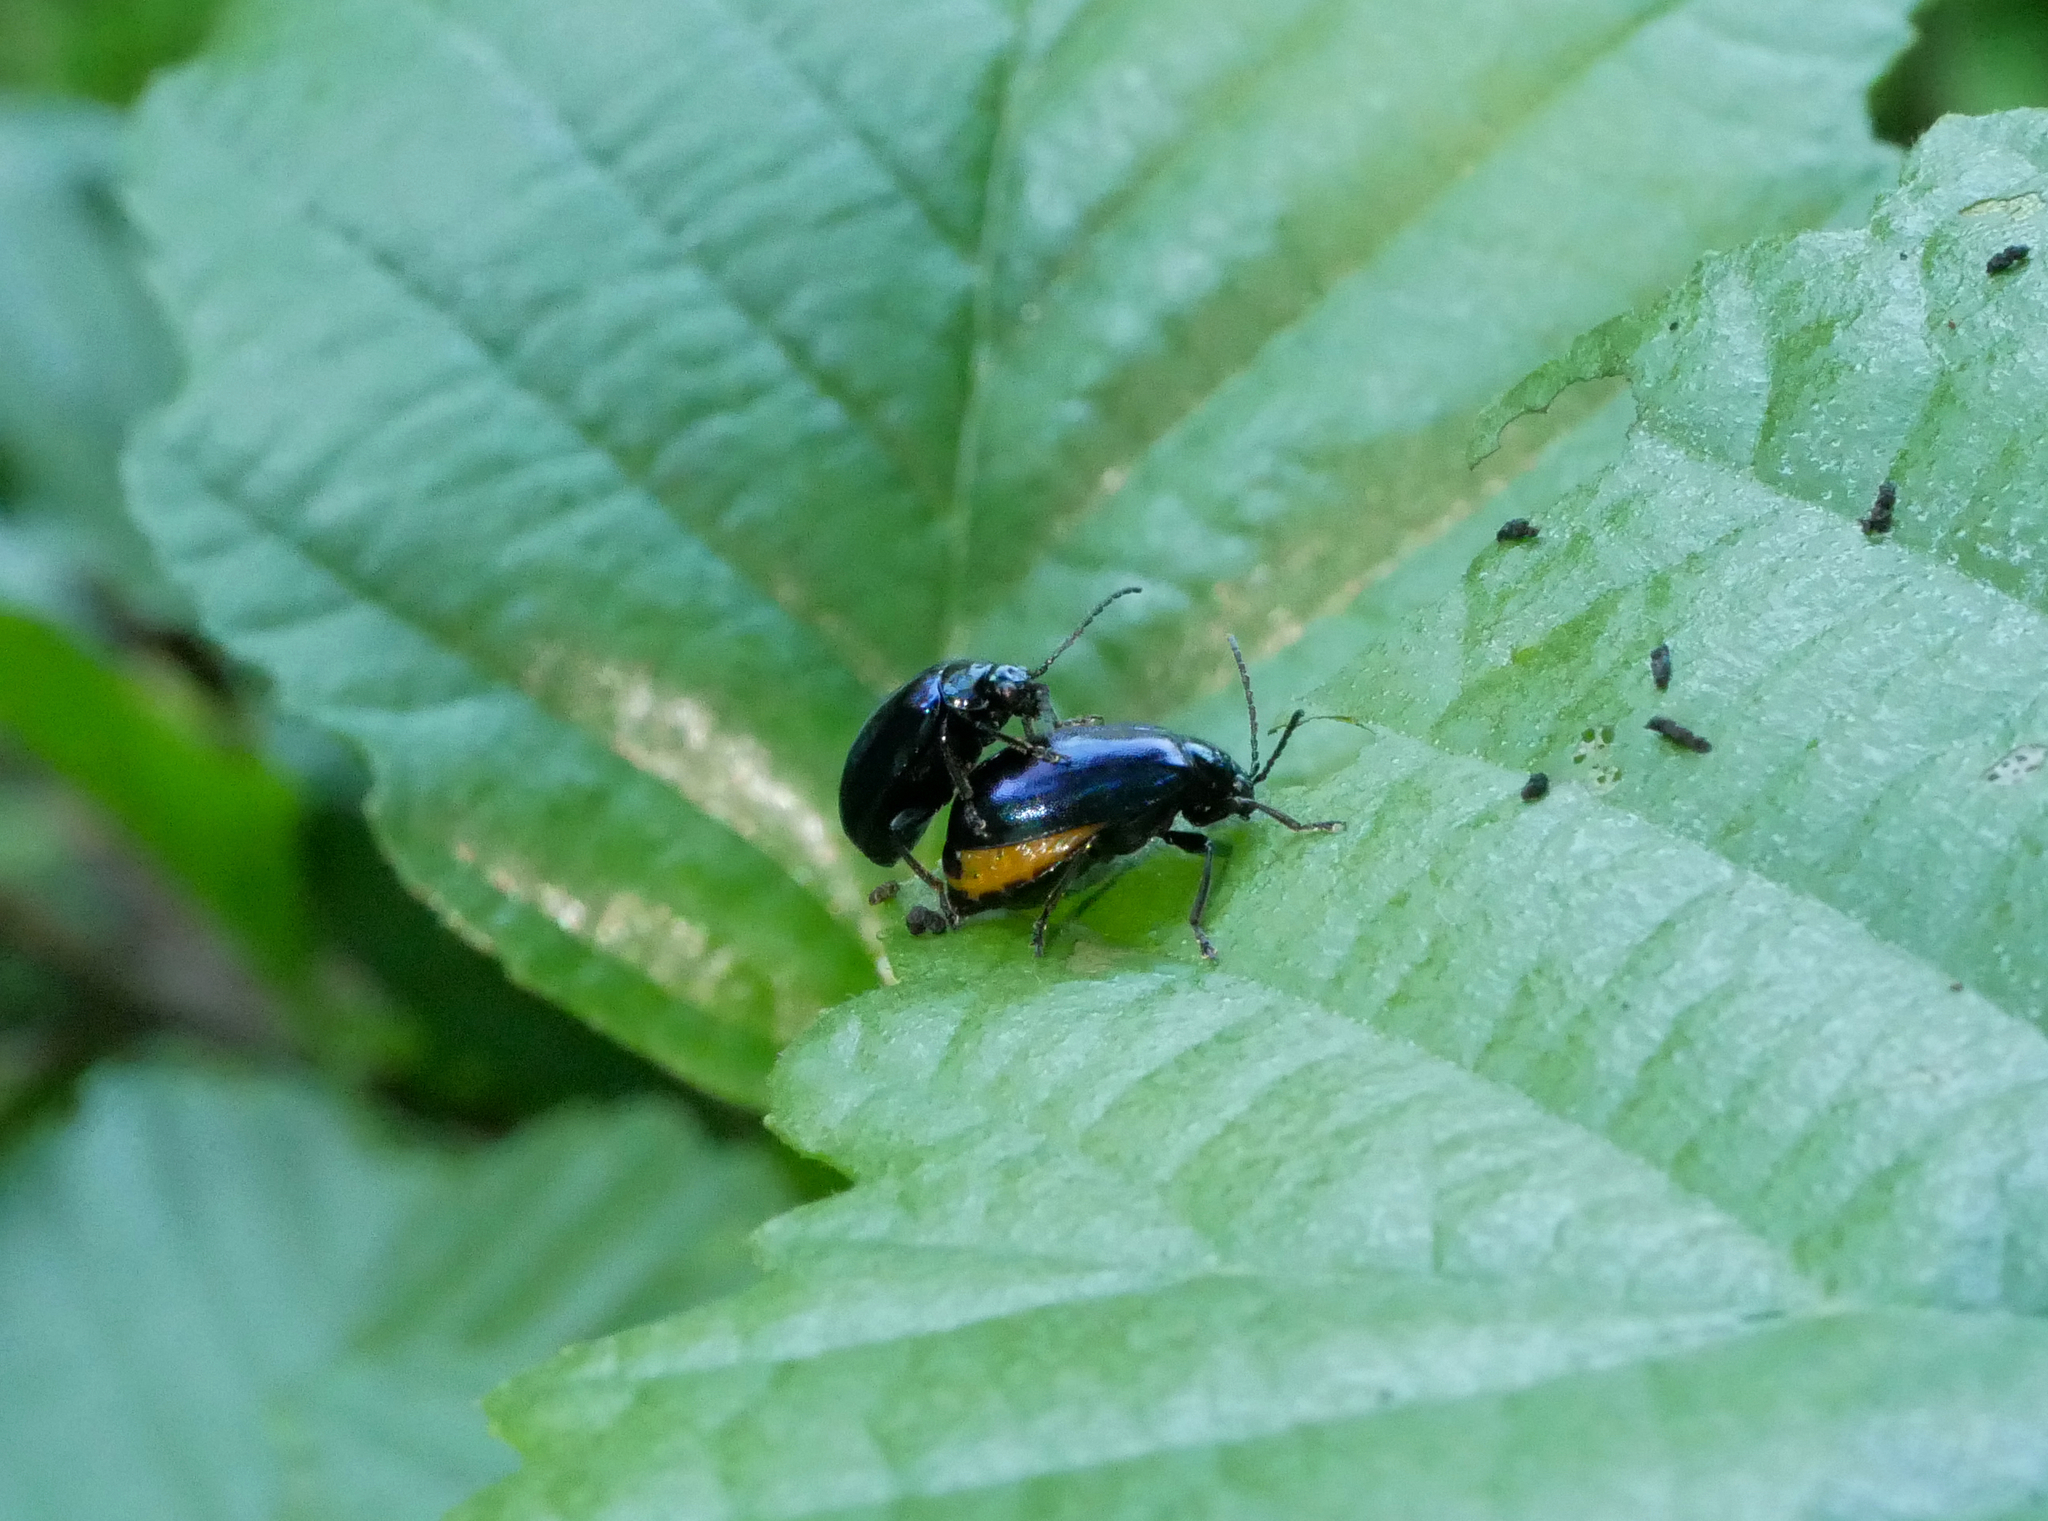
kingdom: Animalia
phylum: Arthropoda
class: Insecta
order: Coleoptera
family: Chrysomelidae
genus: Agelastica
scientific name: Agelastica alni
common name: Alder leaf beetle
